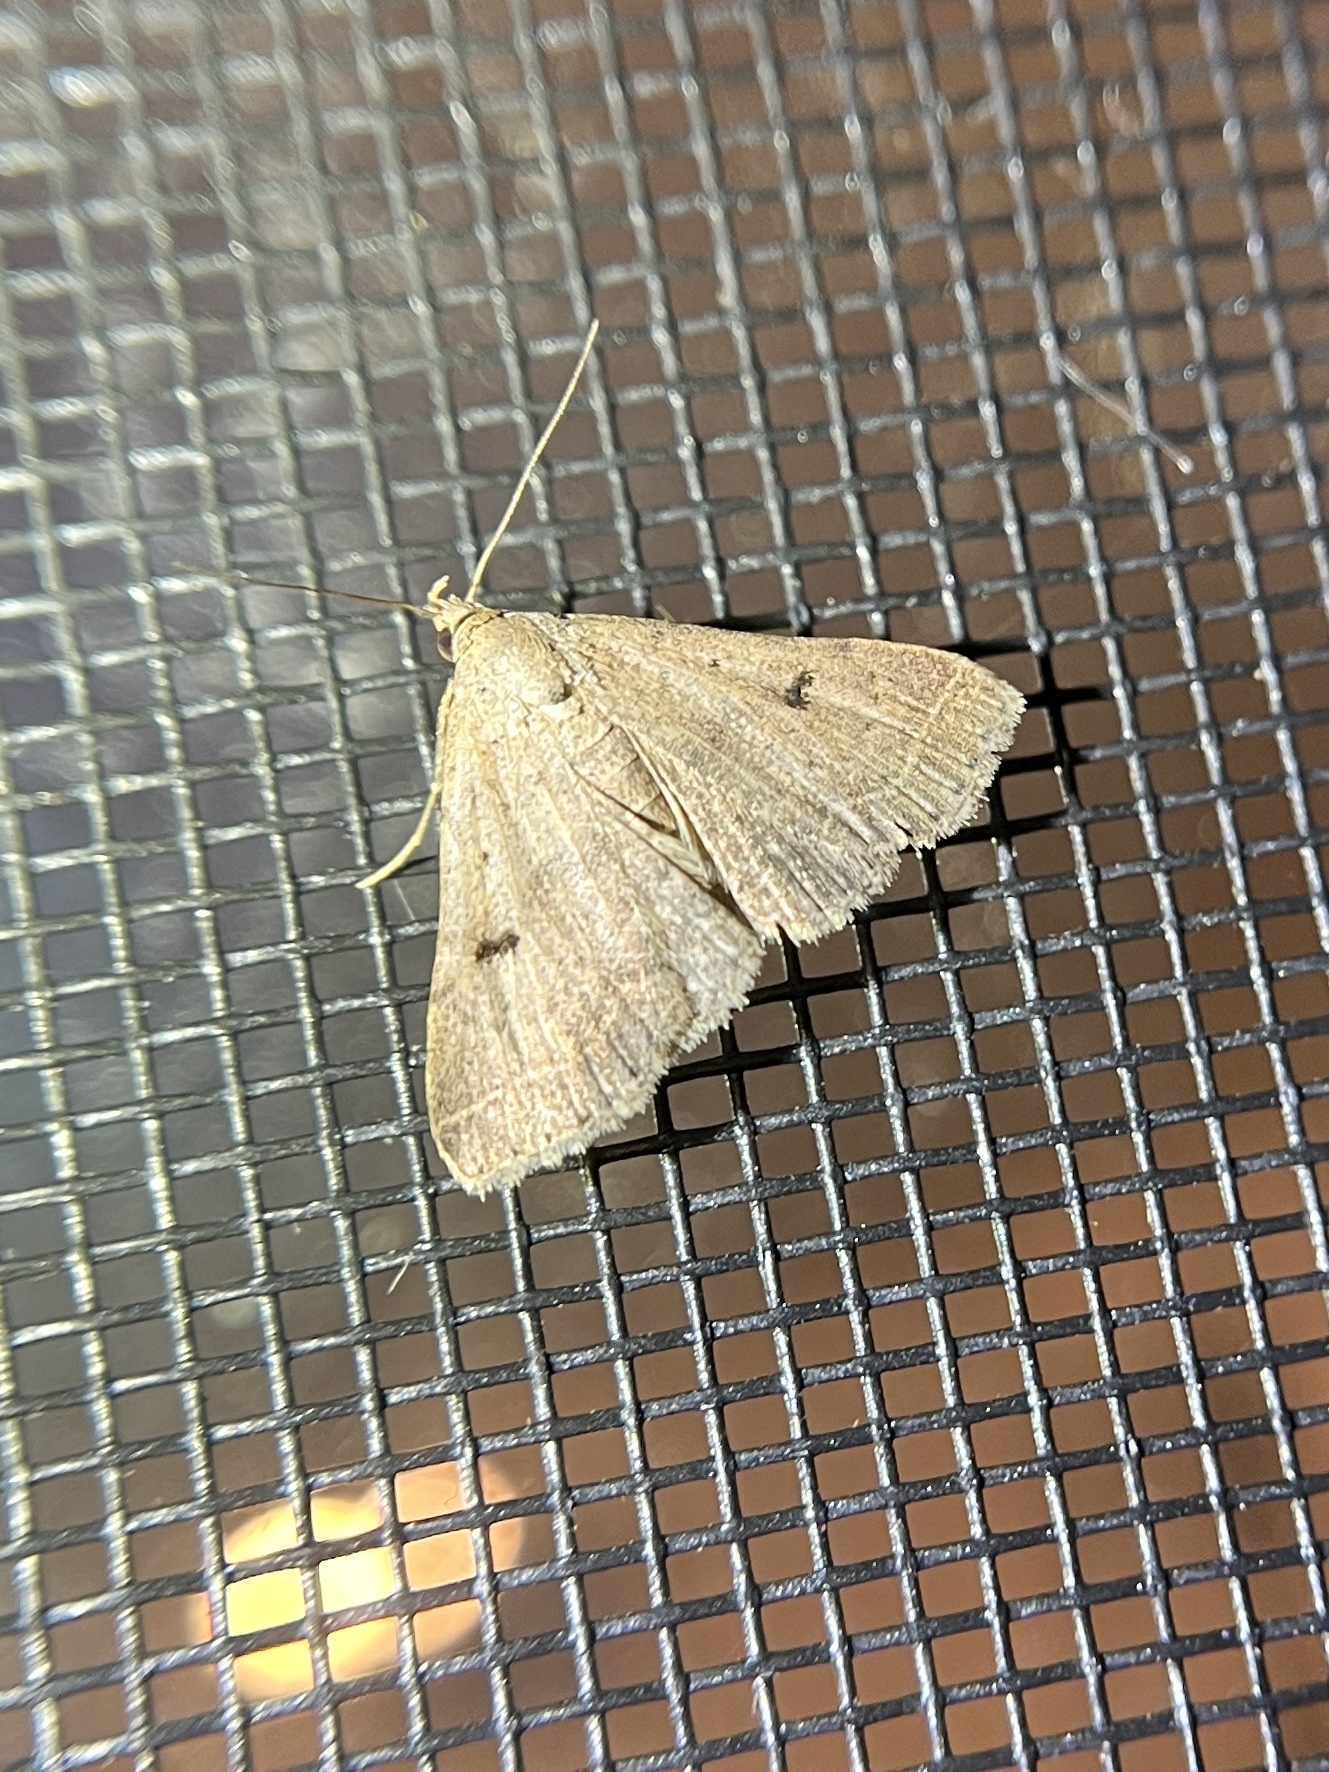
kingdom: Animalia
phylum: Arthropoda
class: Insecta
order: Lepidoptera
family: Erebidae
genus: Bleptina
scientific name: Bleptina caradrinalis
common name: Bent-winged owlet
